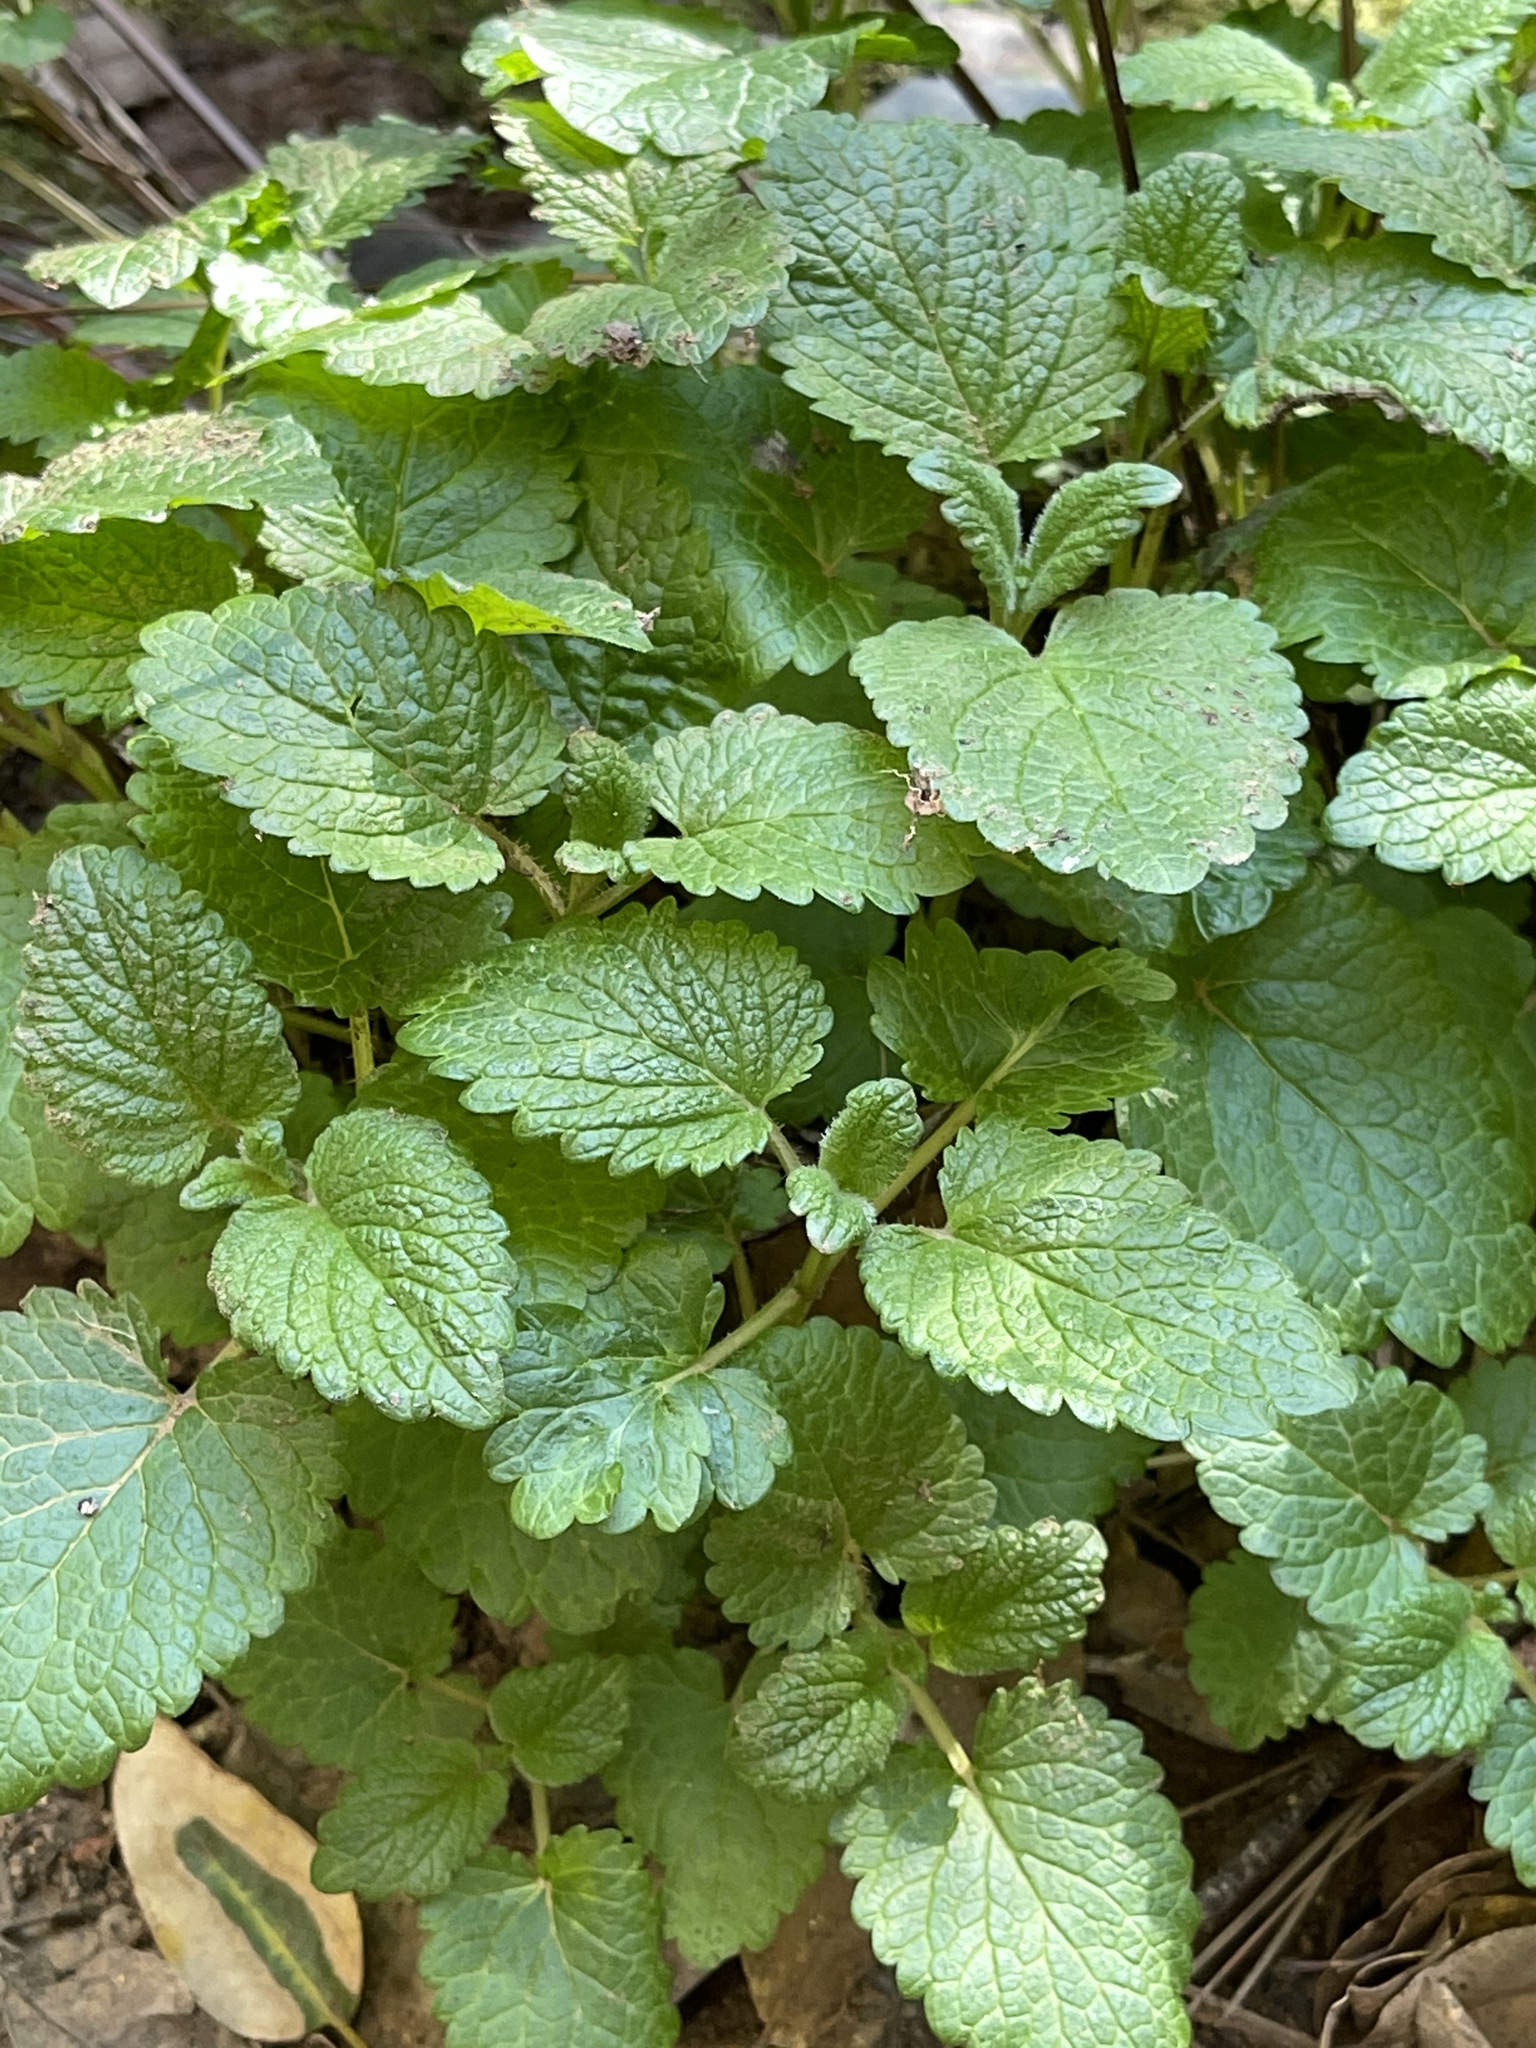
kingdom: Plantae
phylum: Tracheophyta
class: Magnoliopsida
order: Lamiales
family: Lamiaceae
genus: Melissa
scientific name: Melissa officinalis
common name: Balm
